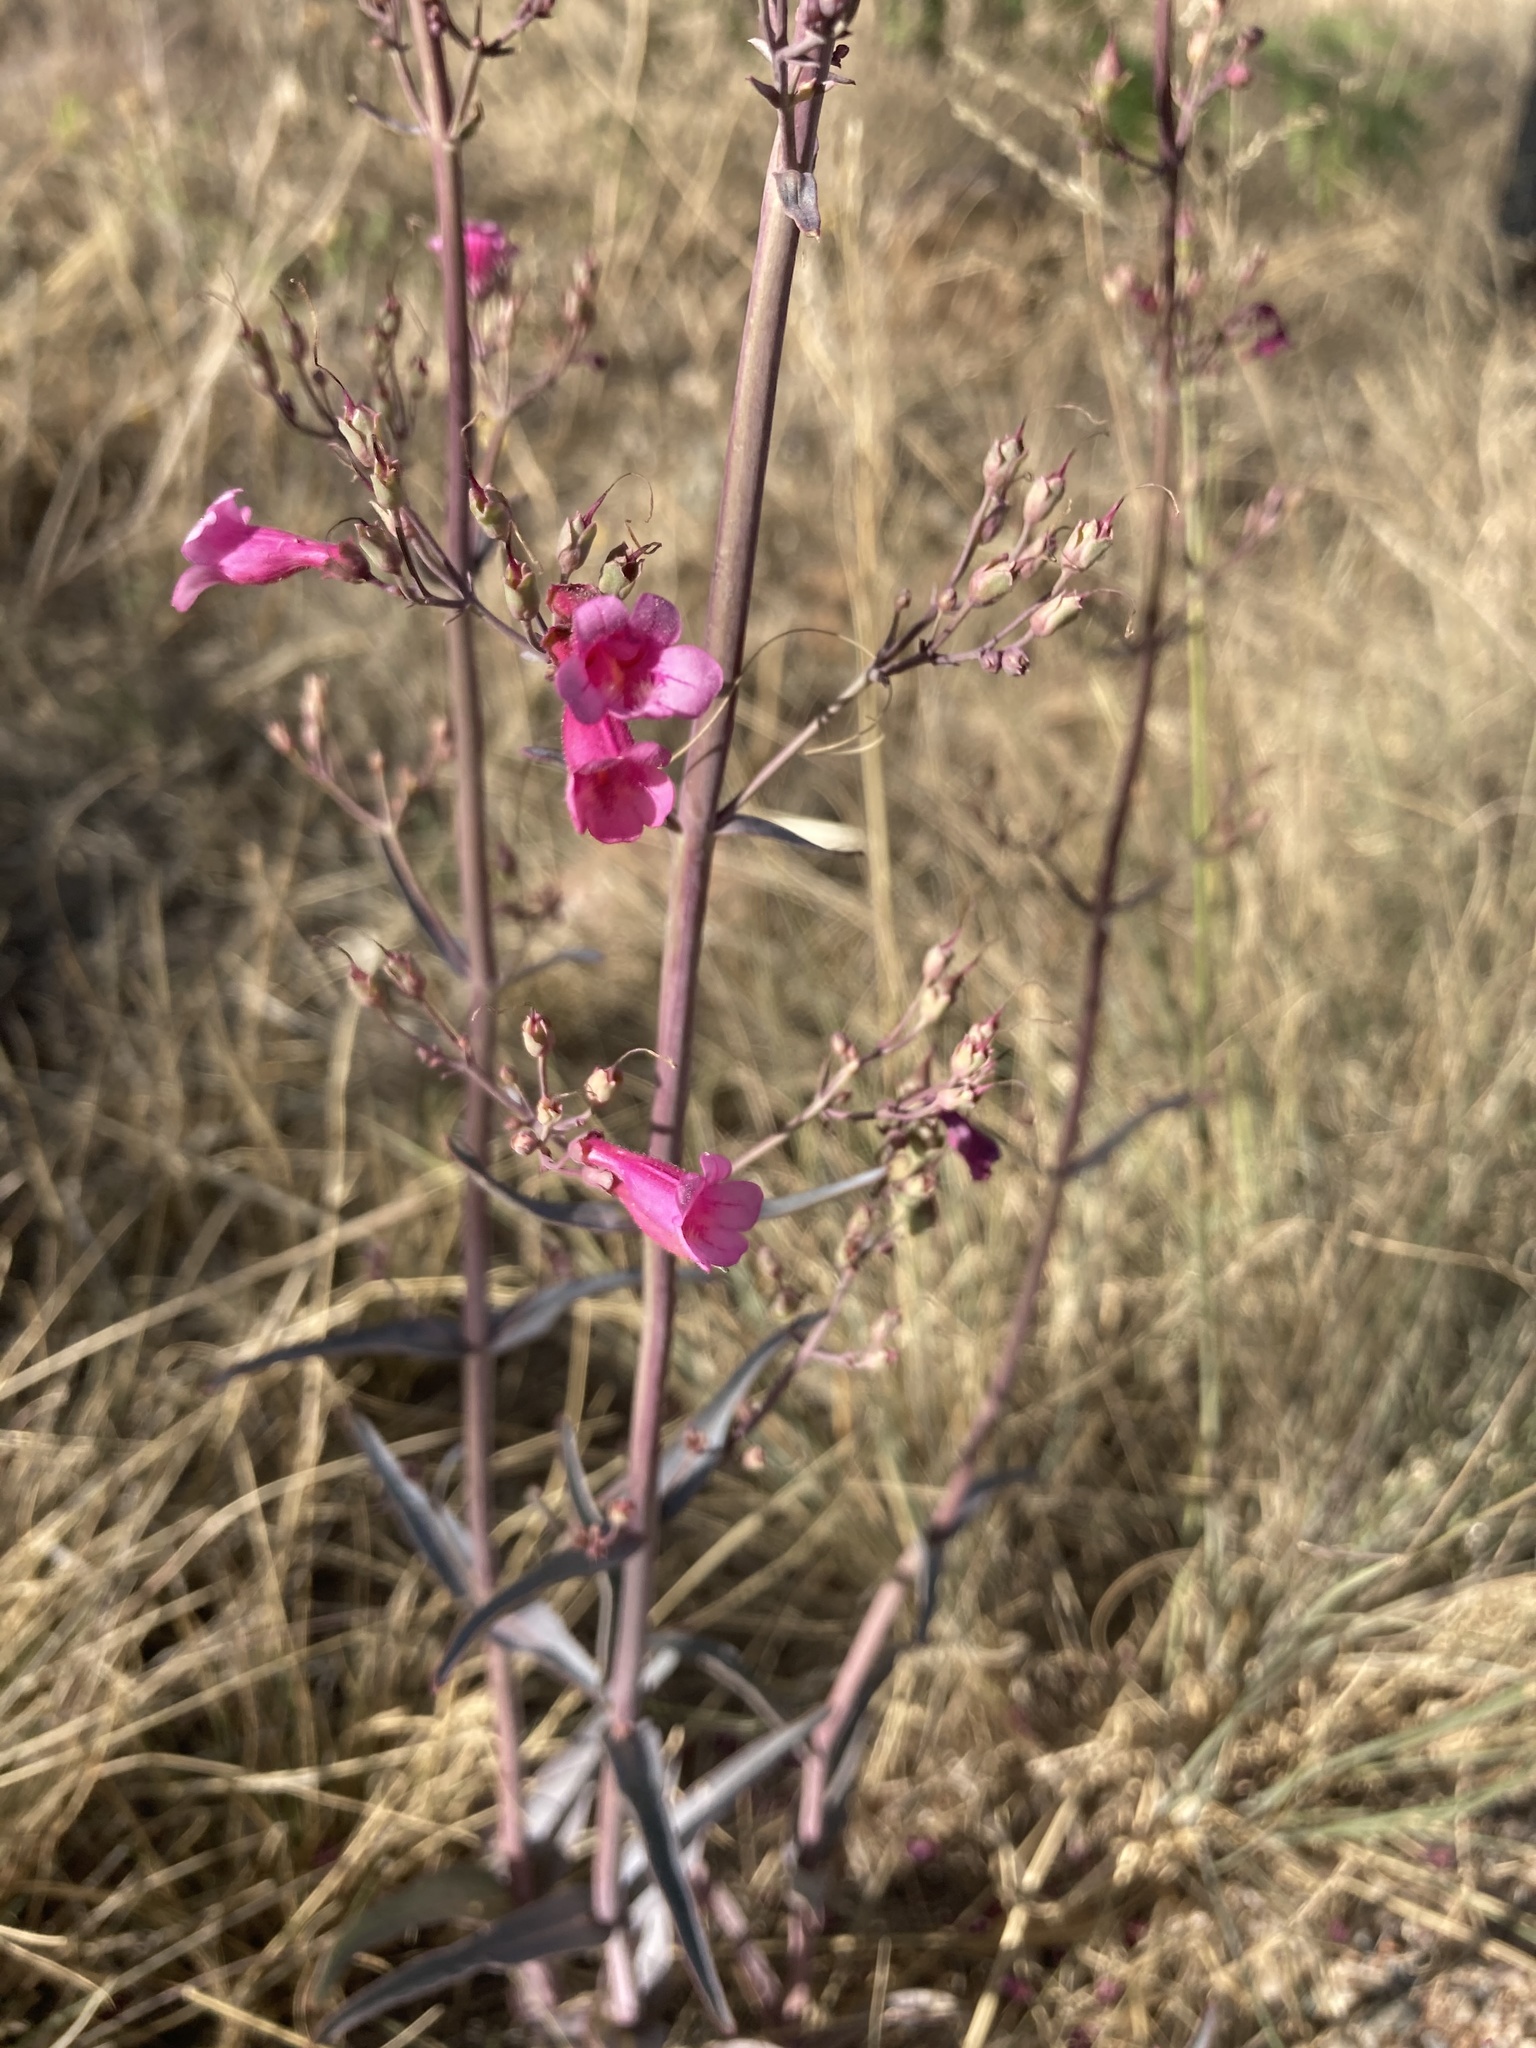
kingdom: Plantae
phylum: Tracheophyta
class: Magnoliopsida
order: Lamiales
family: Plantaginaceae
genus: Penstemon
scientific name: Penstemon parryi
